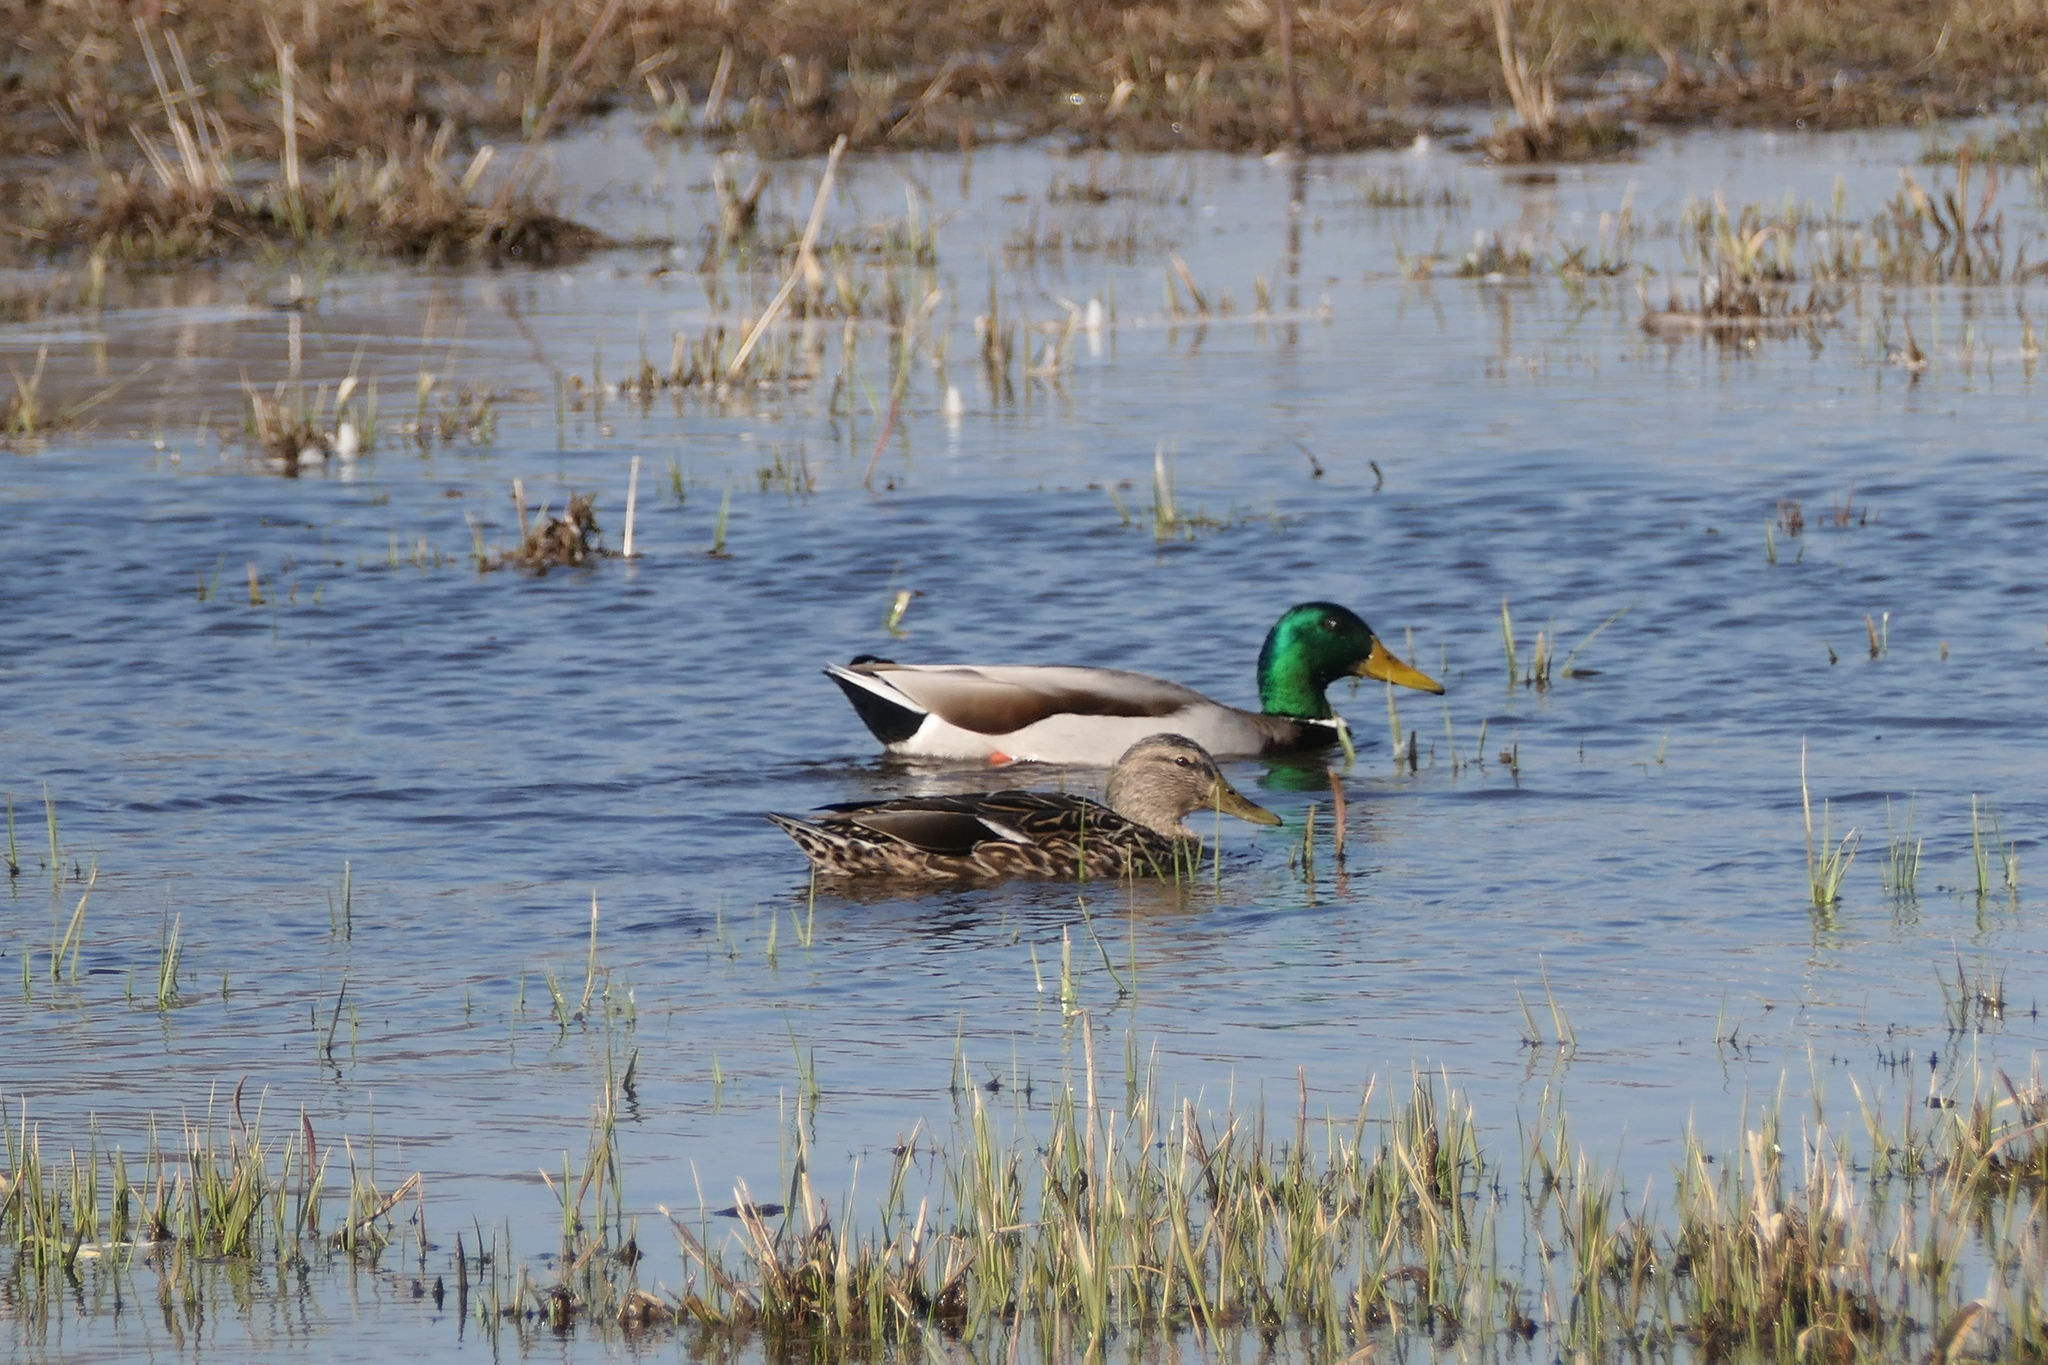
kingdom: Animalia
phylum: Chordata
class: Aves
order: Anseriformes
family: Anatidae
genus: Anas
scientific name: Anas platyrhynchos
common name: Mallard
